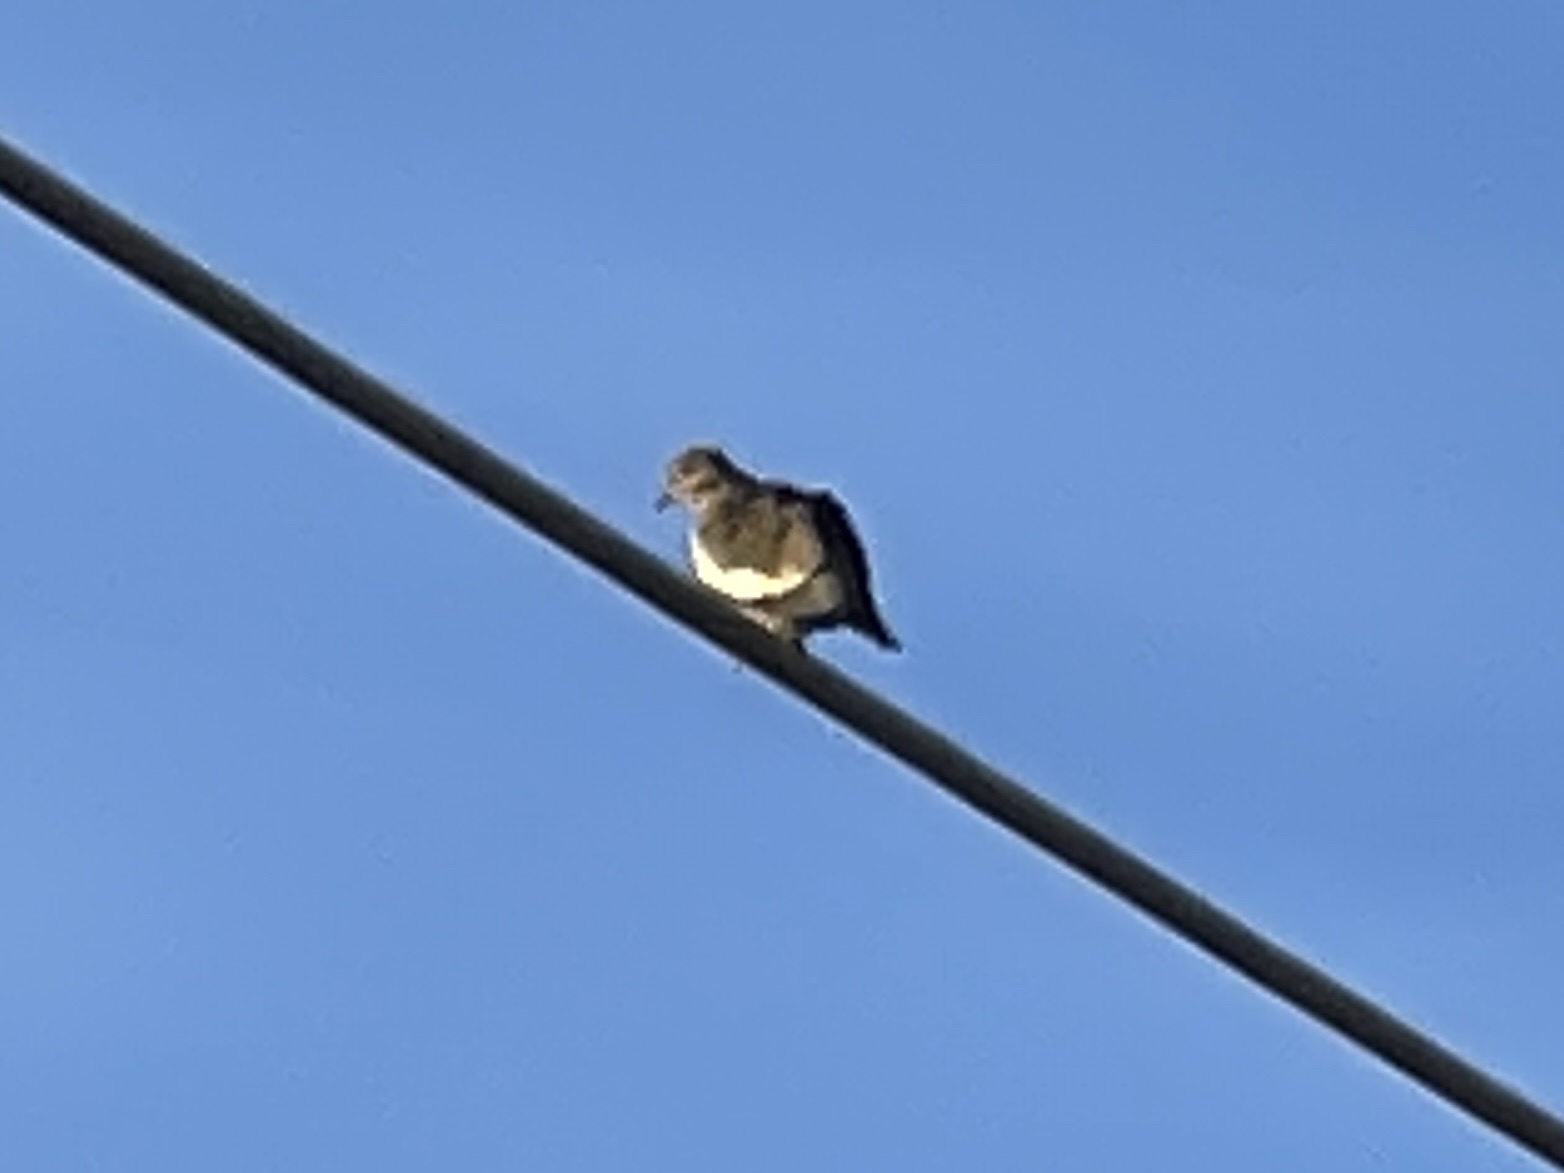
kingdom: Animalia
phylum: Chordata
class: Aves
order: Columbiformes
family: Columbidae
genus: Zenaida
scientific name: Zenaida asiatica
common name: White-winged dove
